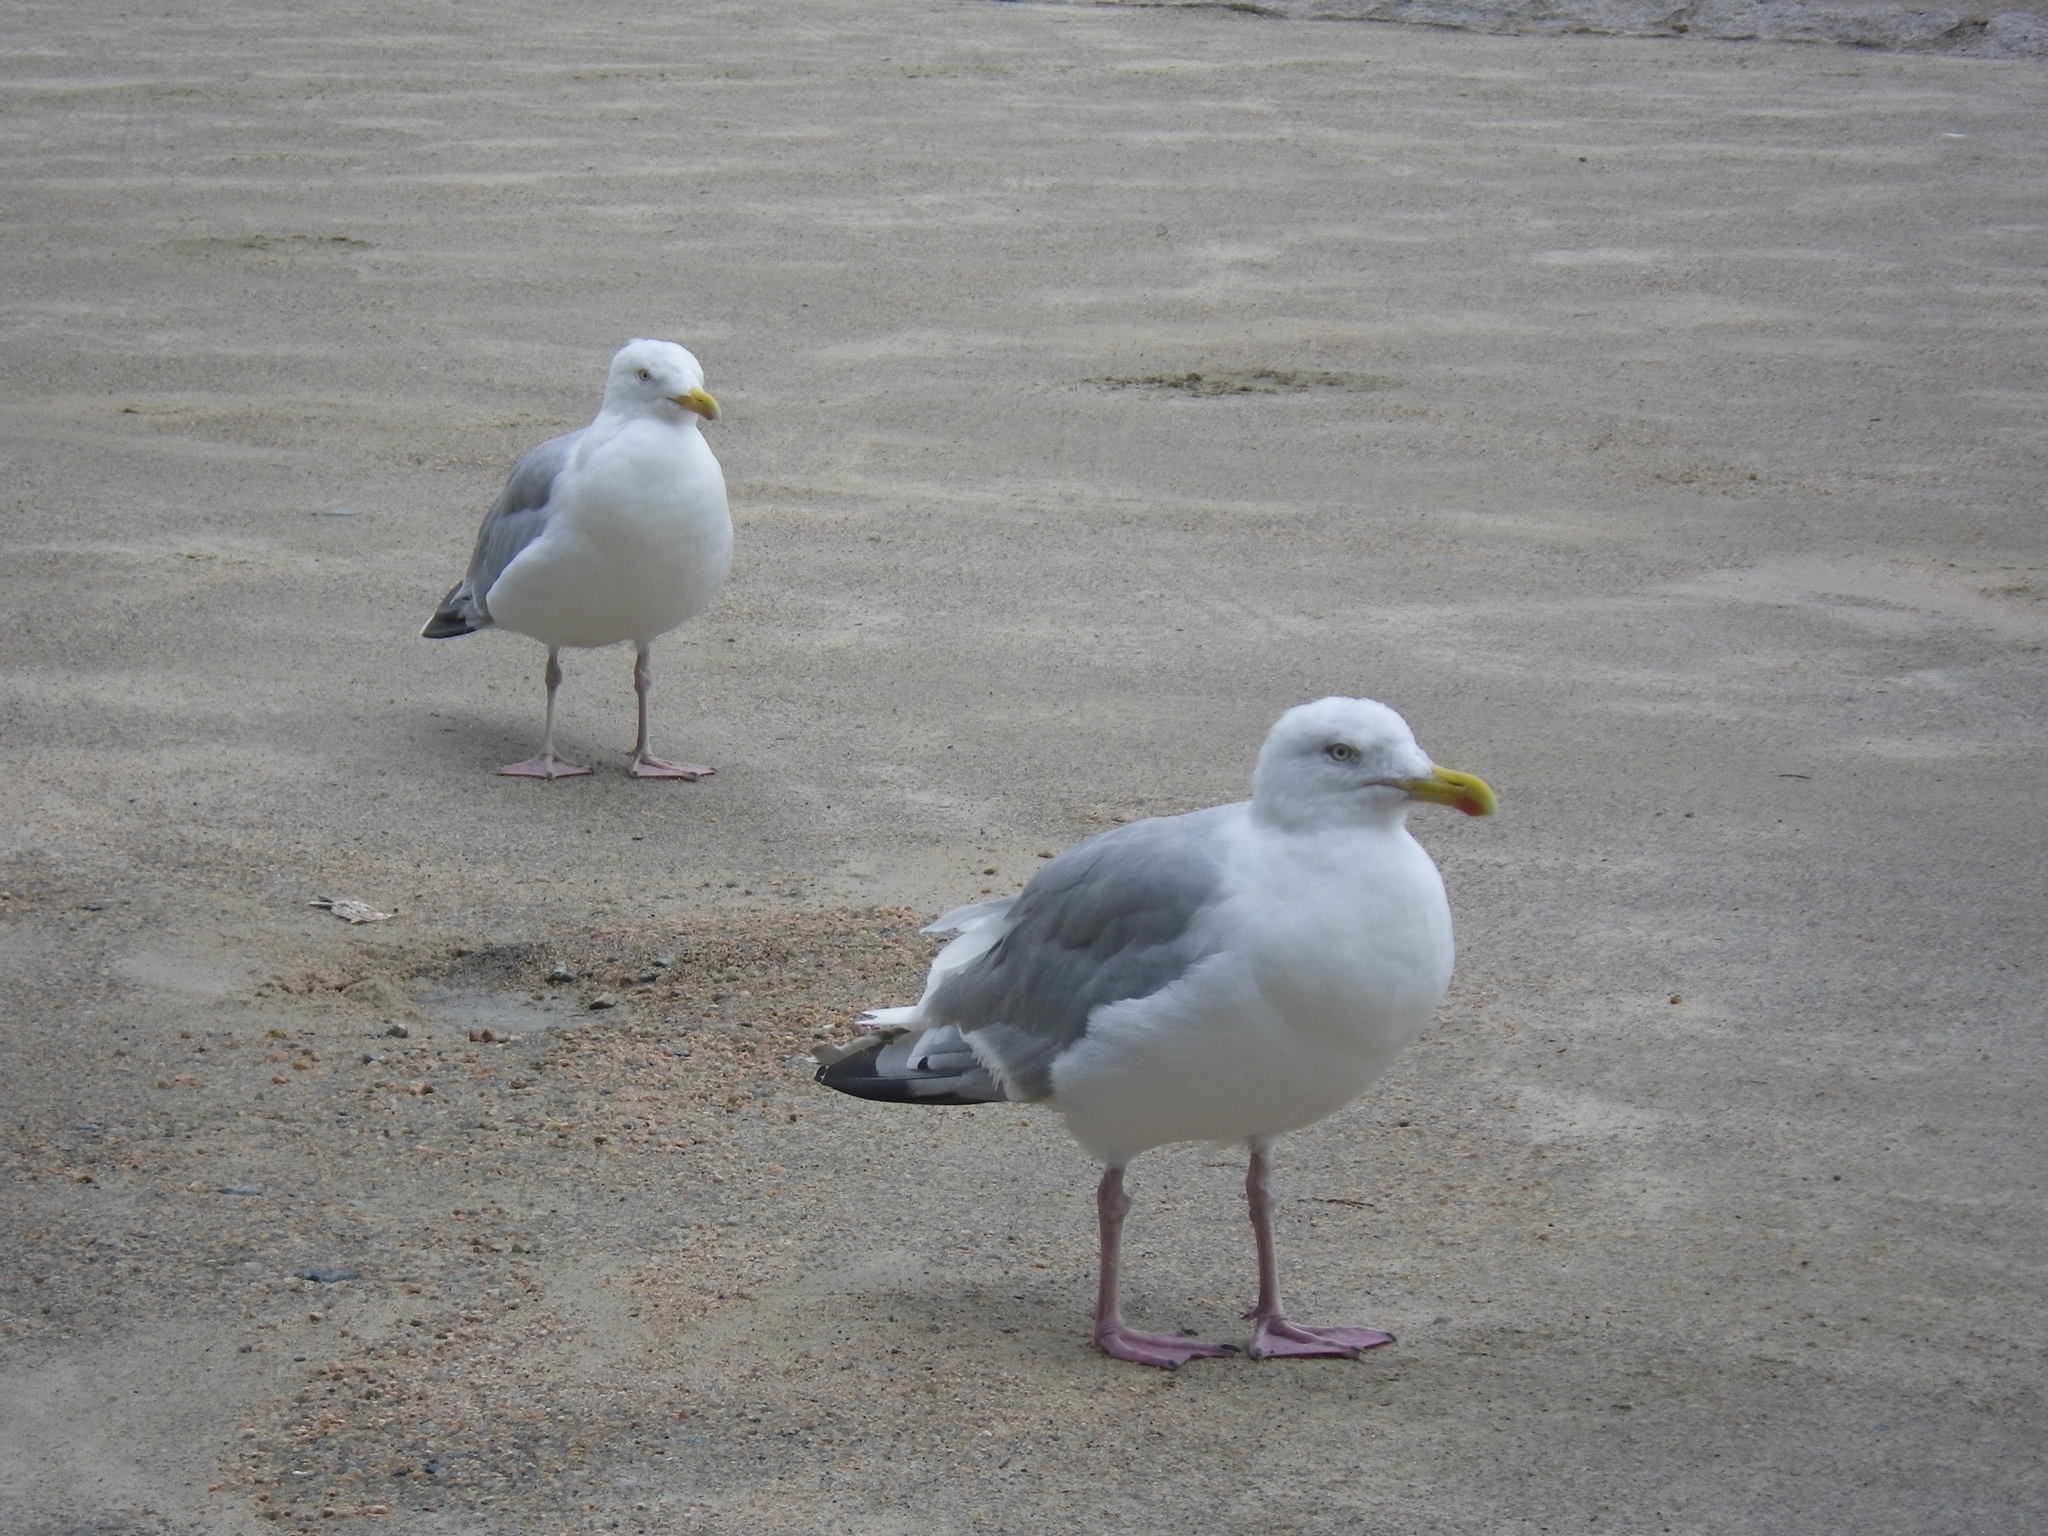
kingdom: Animalia
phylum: Chordata
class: Aves
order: Charadriiformes
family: Laridae
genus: Larus
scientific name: Larus argentatus
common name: Herring gull
